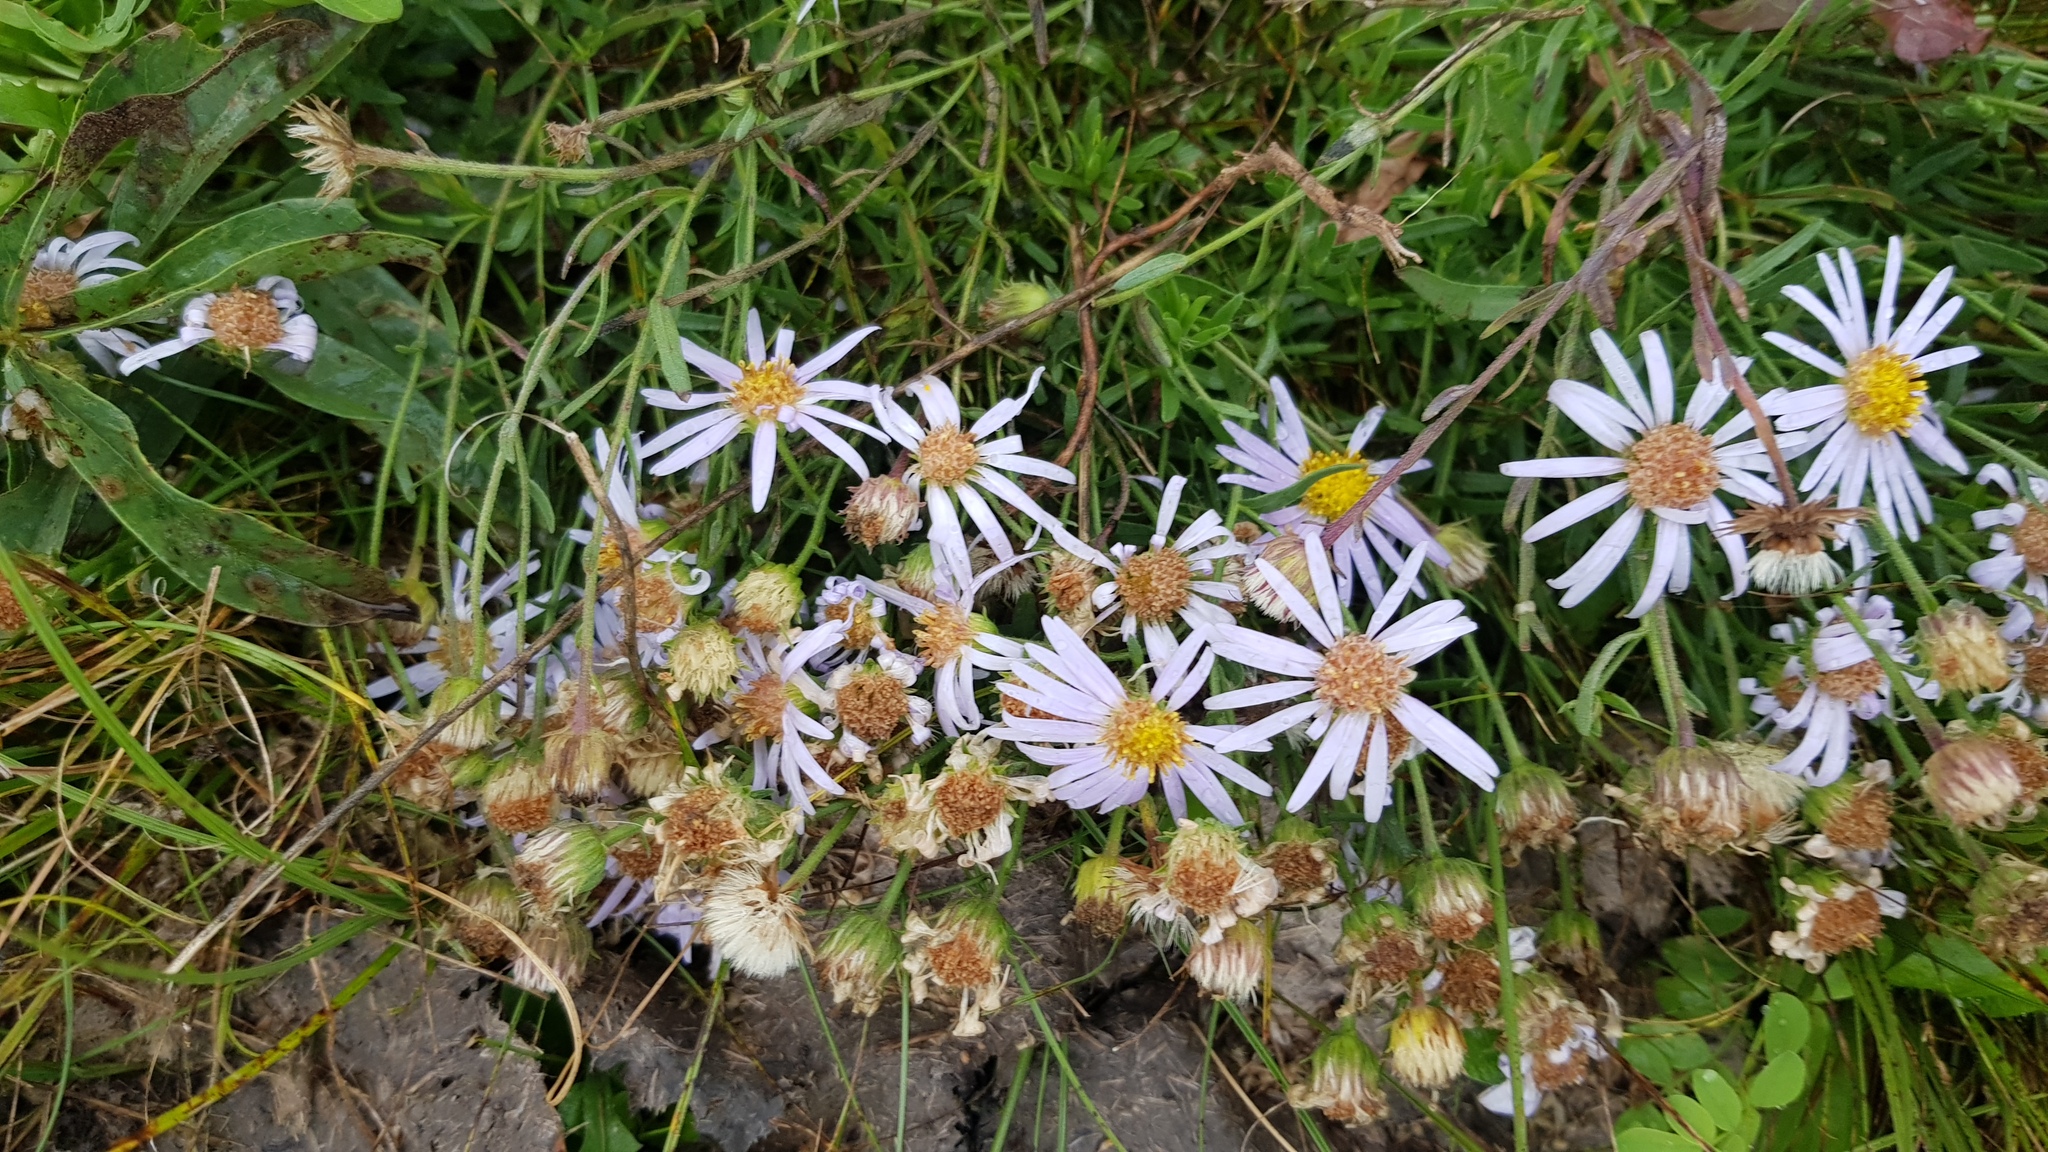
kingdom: Plantae
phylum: Tracheophyta
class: Magnoliopsida
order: Asterales
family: Asteraceae
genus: Heteropappus
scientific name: Heteropappus altaicus
